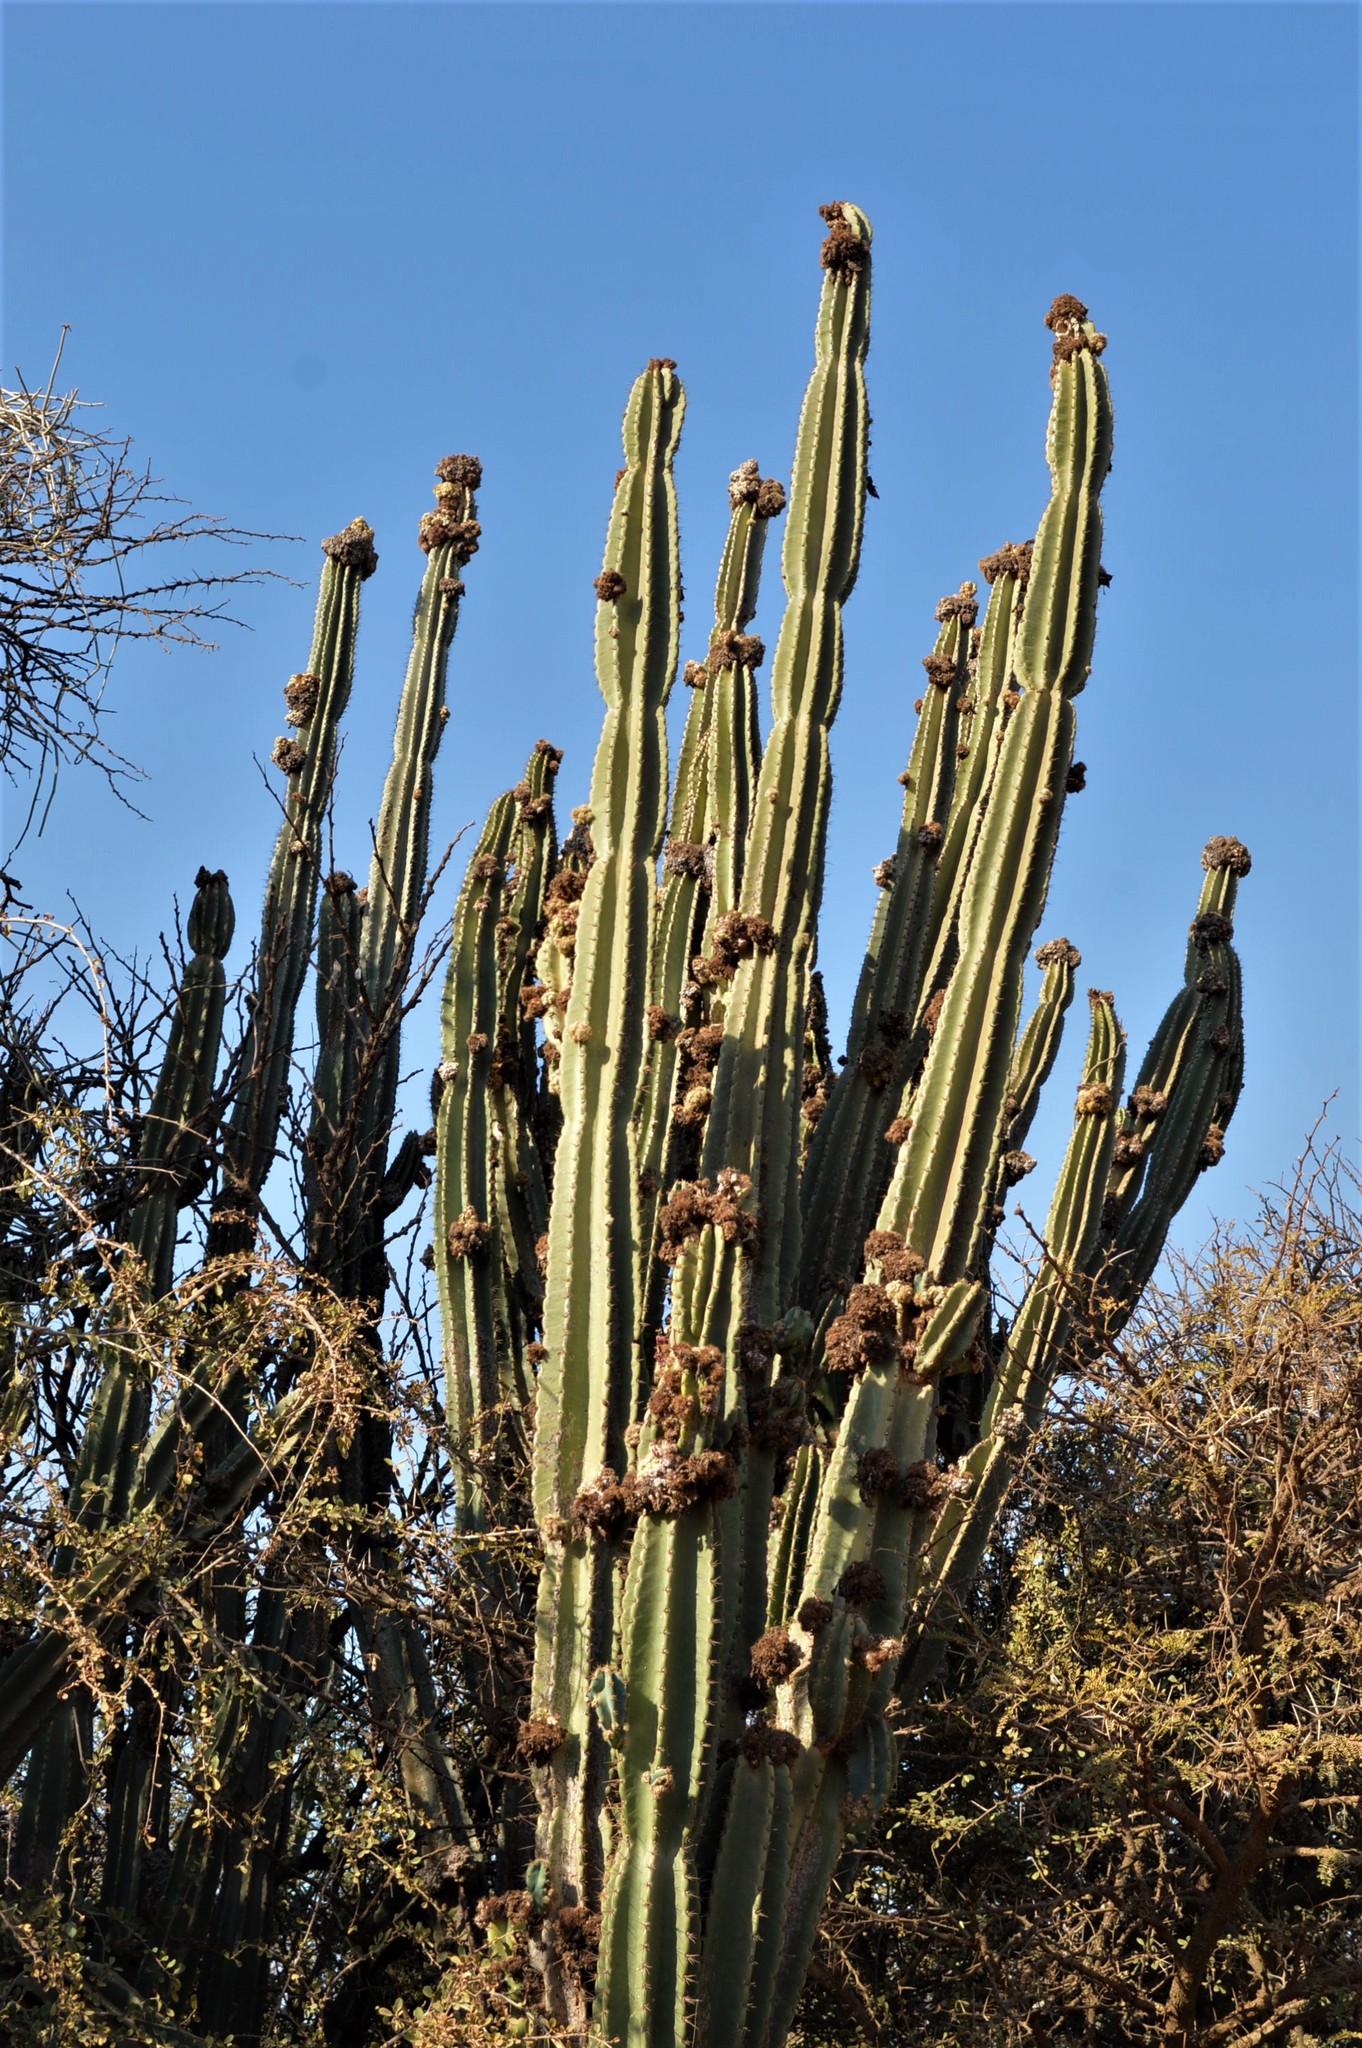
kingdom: Plantae
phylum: Tracheophyta
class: Magnoliopsida
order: Caryophyllales
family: Cactaceae
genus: Cereus
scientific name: Cereus jamacaru
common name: Queen-of-the-night
